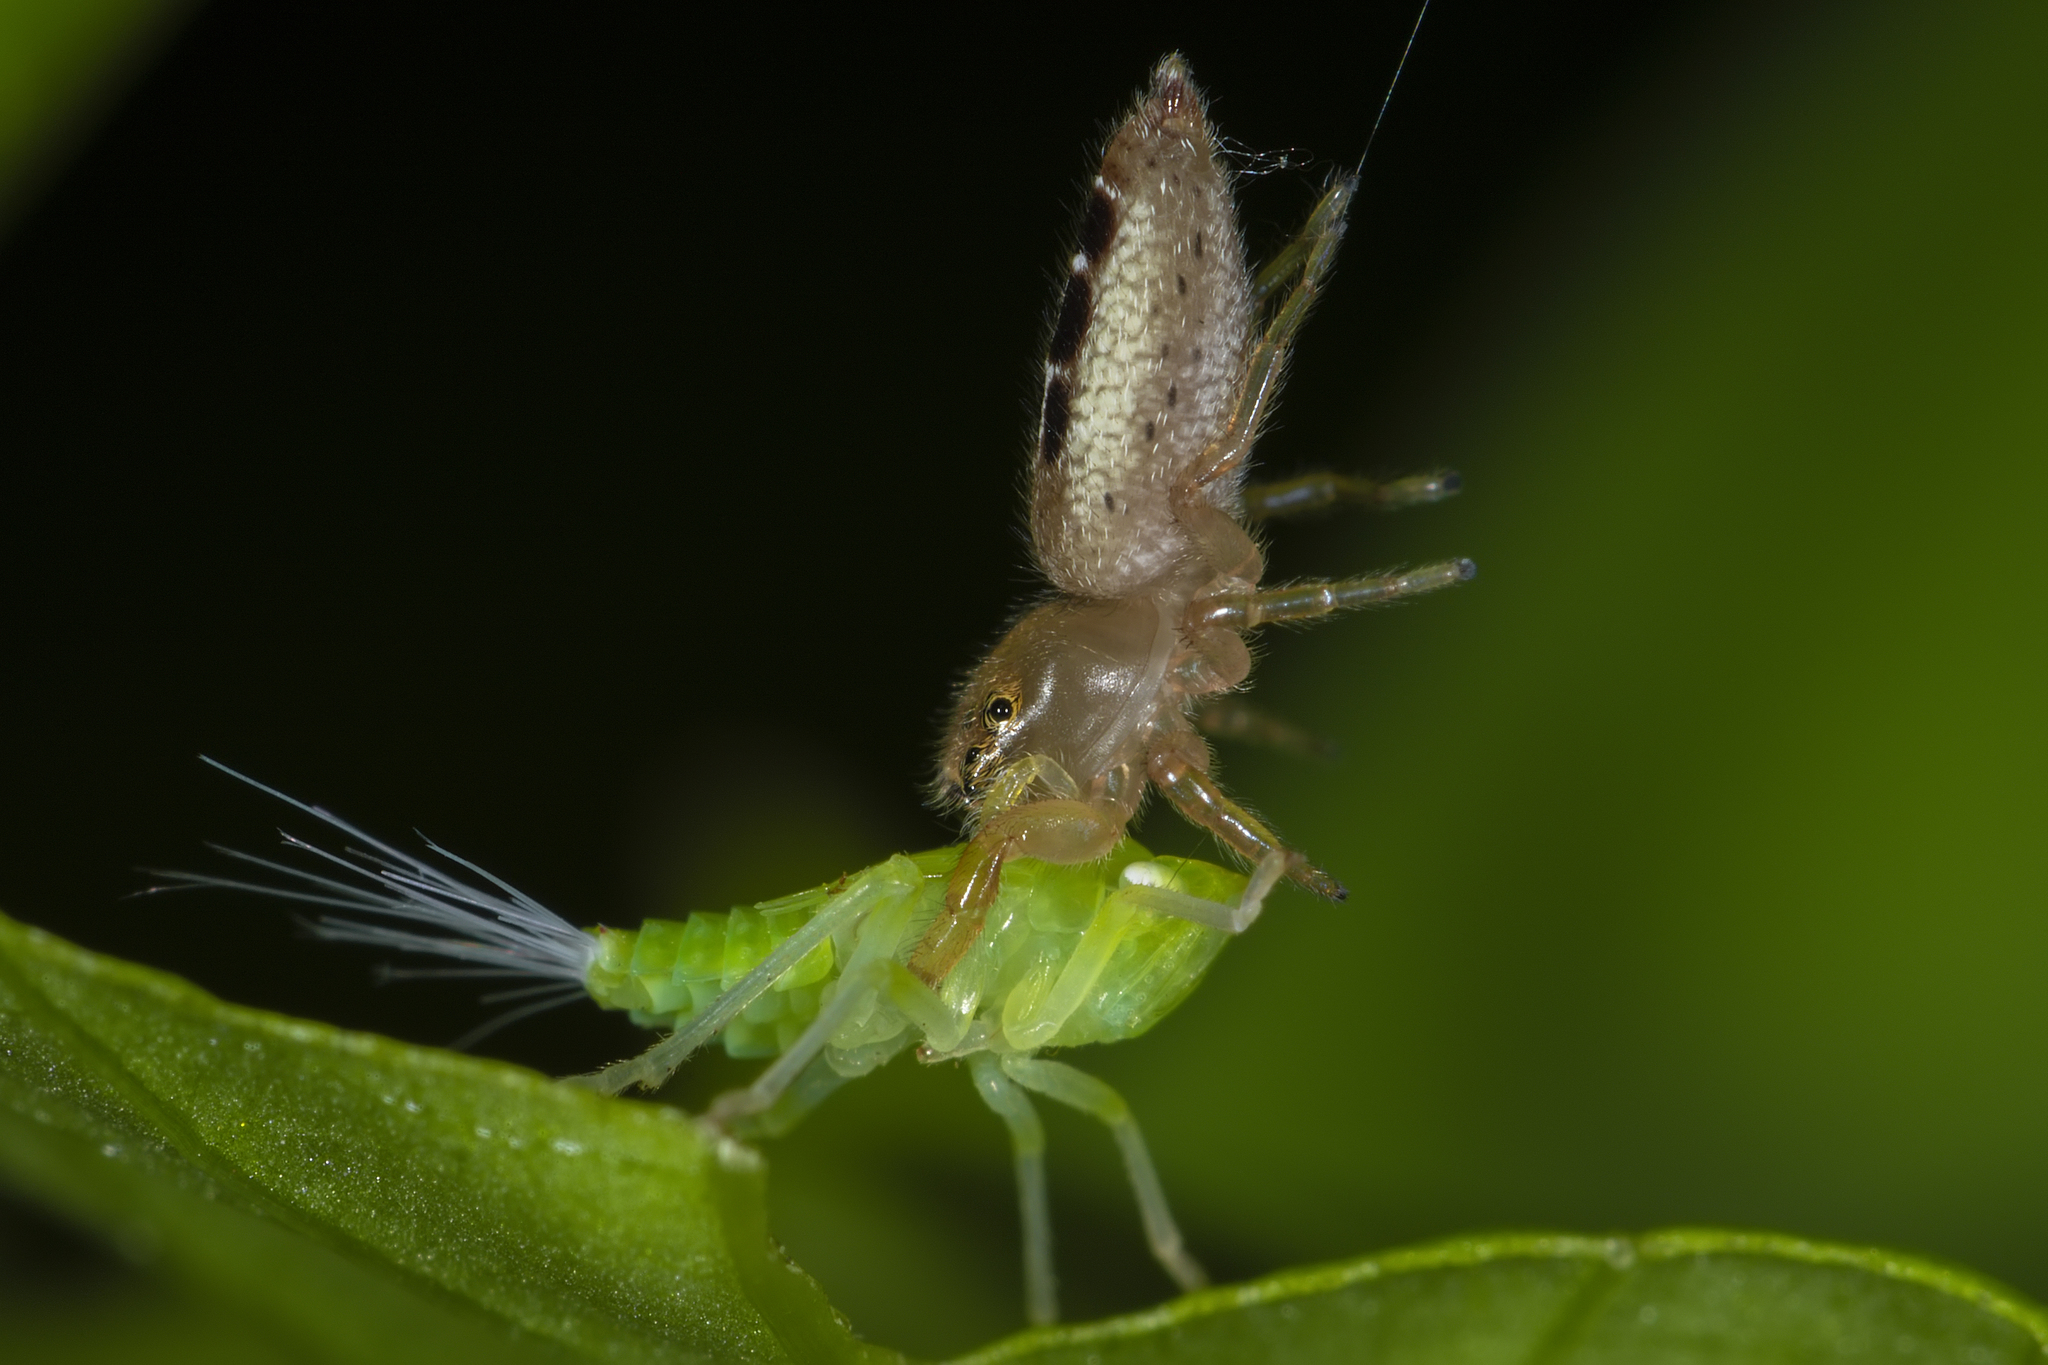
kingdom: Animalia
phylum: Arthropoda
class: Arachnida
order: Araneae
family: Salticidae
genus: Cotinusa
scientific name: Cotinusa vittata
